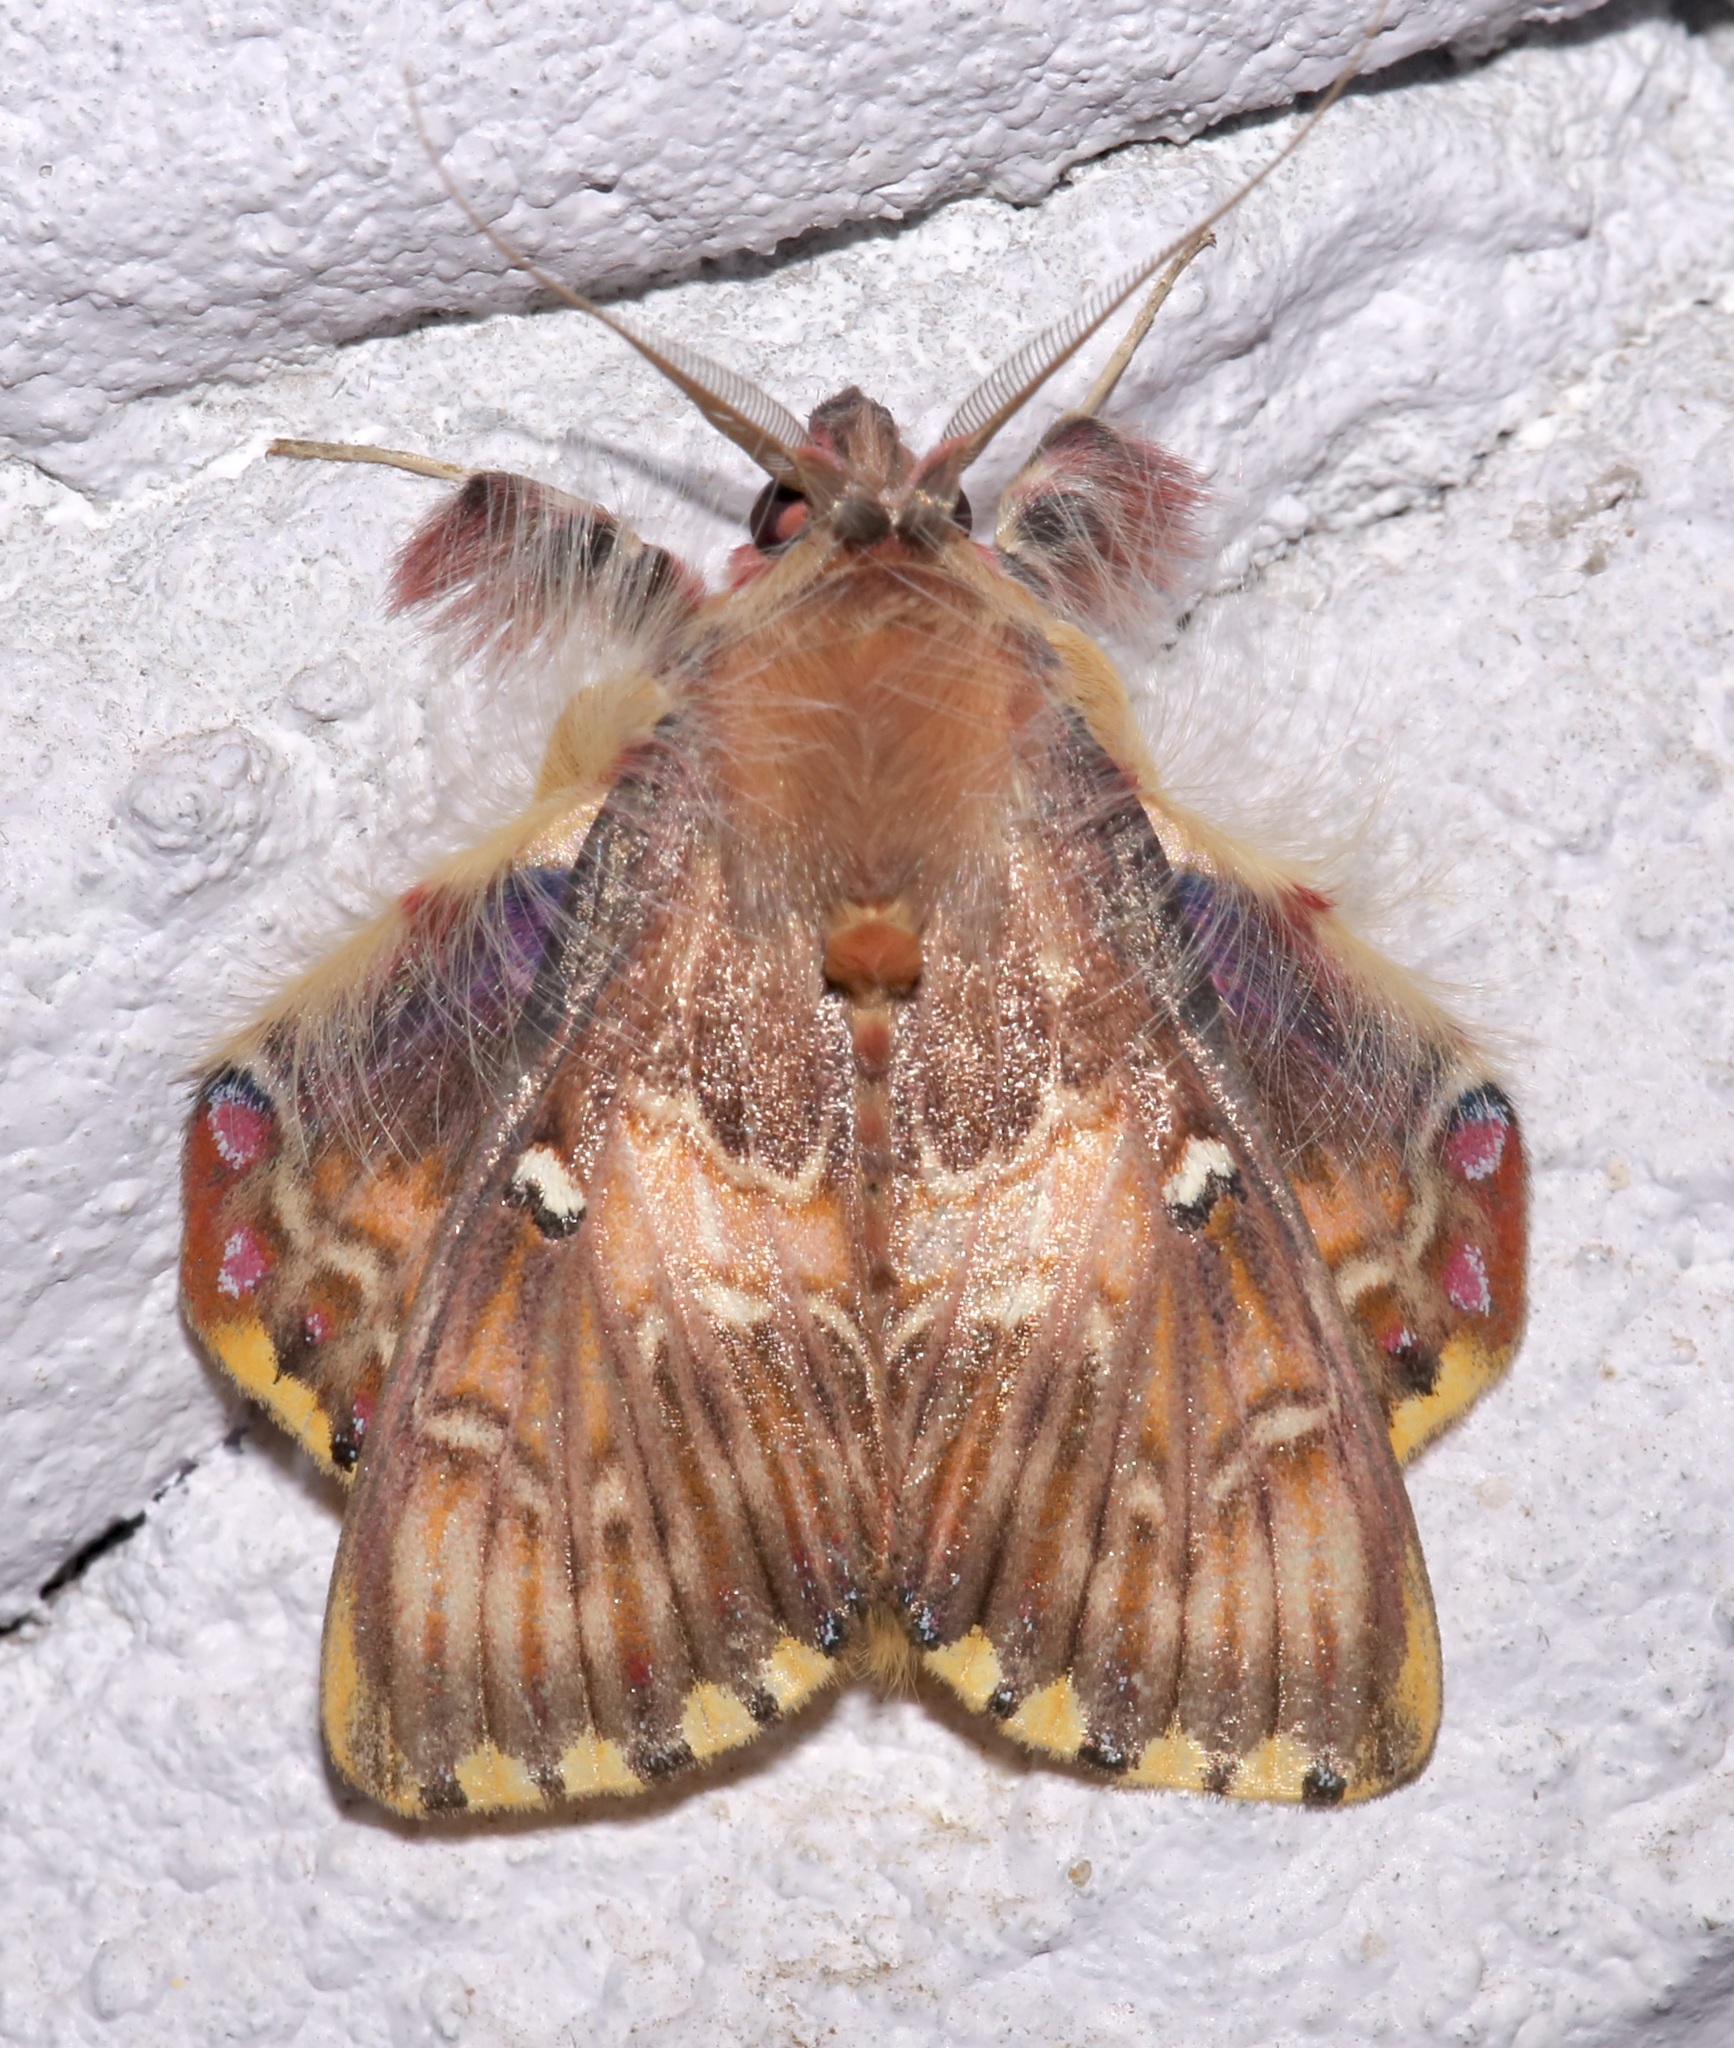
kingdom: Animalia
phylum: Arthropoda
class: Insecta
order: Lepidoptera
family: Erebidae
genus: Sosxetra
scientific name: Sosxetra grata
